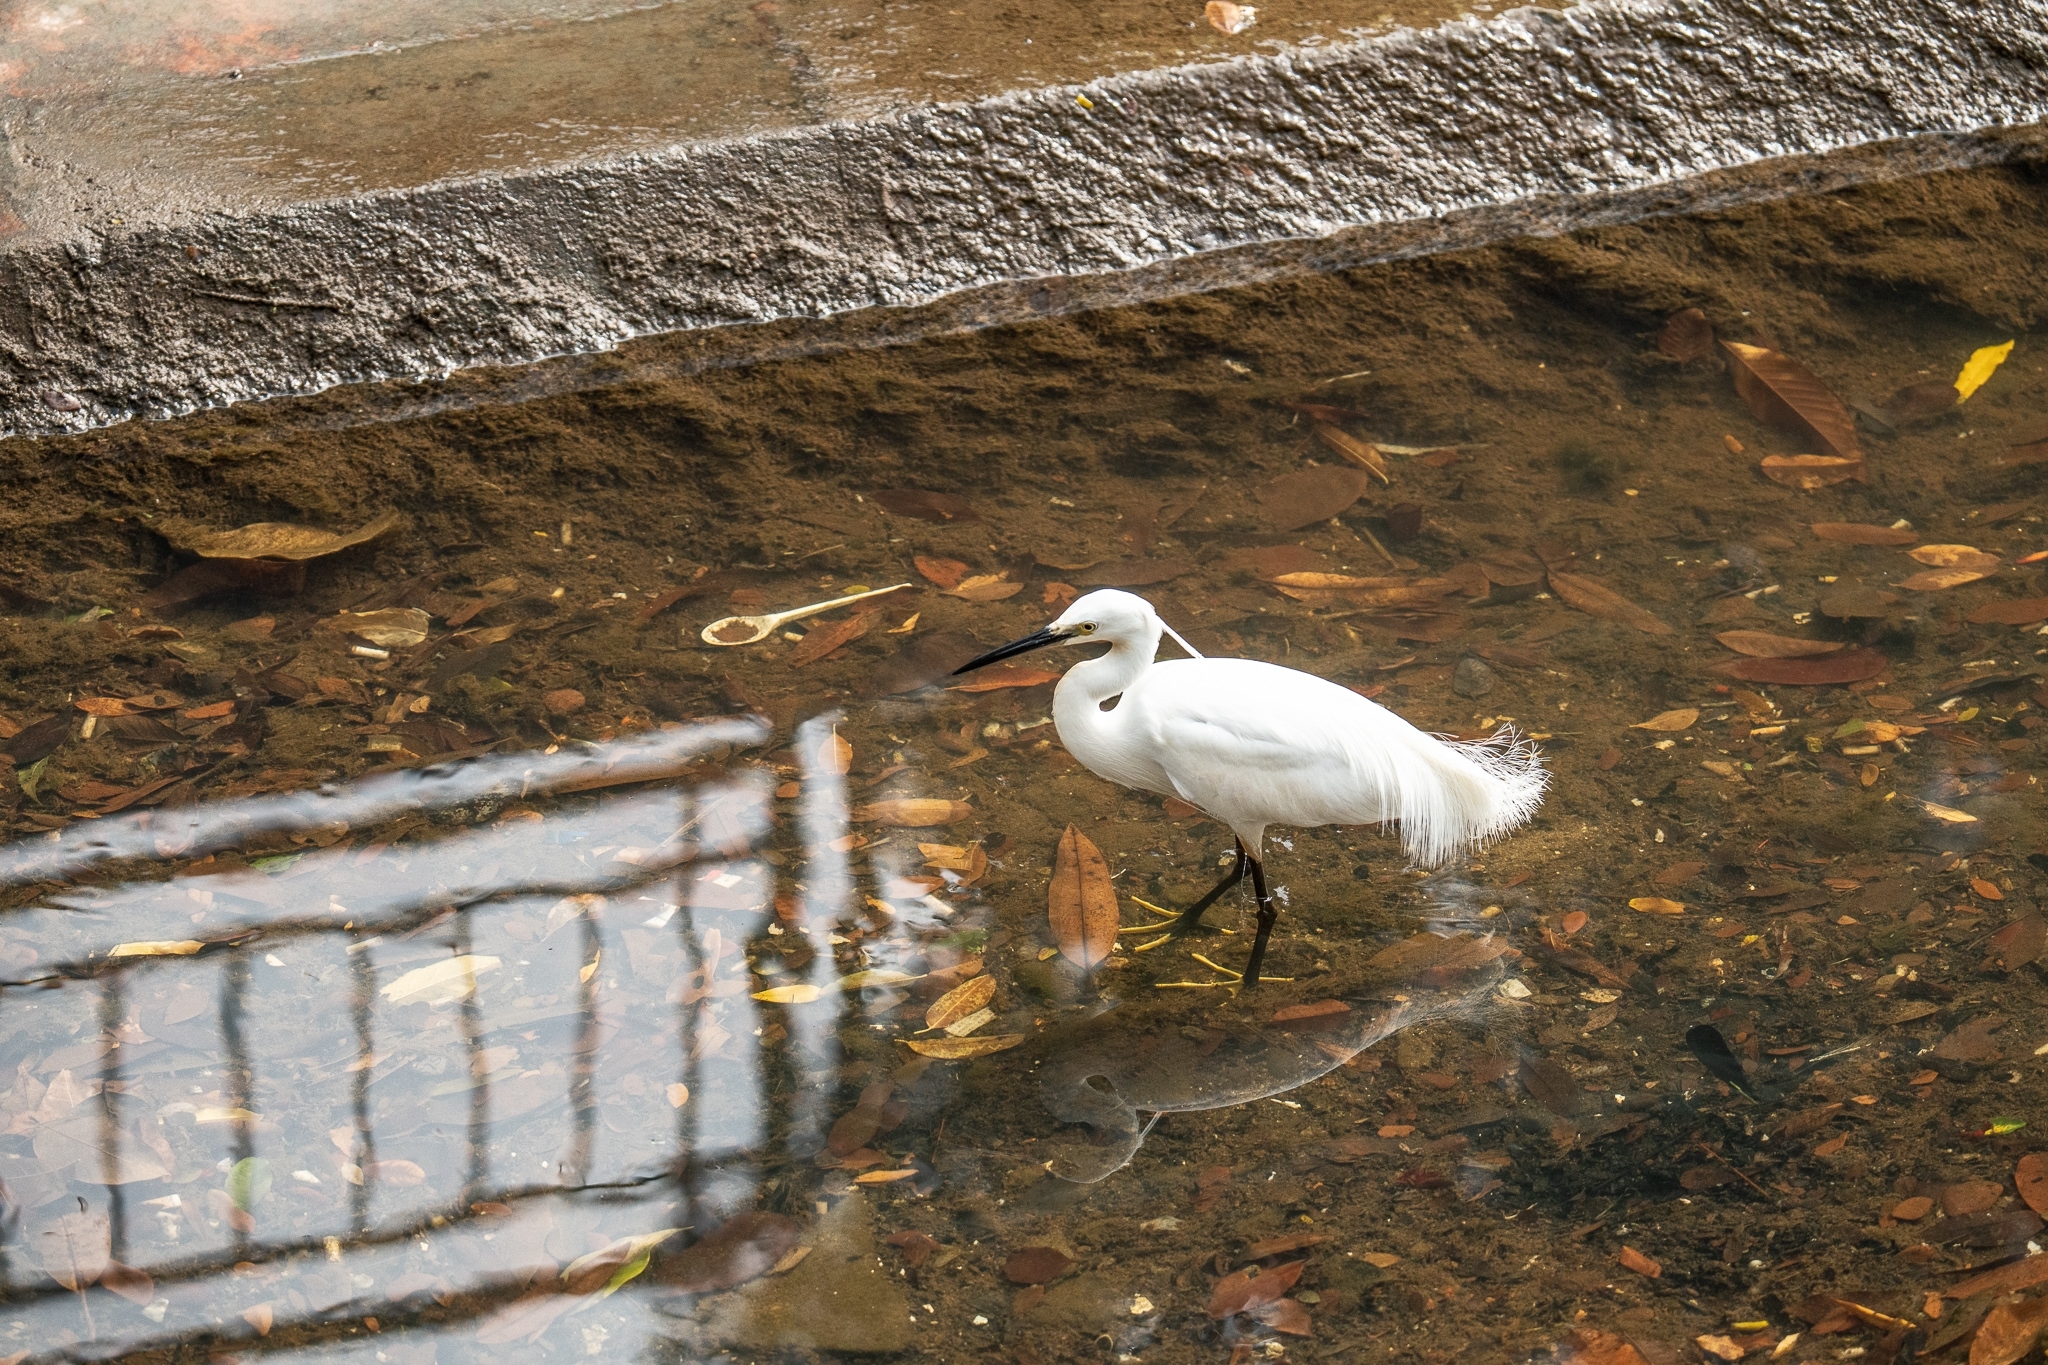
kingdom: Animalia
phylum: Chordata
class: Aves
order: Pelecaniformes
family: Ardeidae
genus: Egretta
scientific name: Egretta garzetta
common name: Little egret
